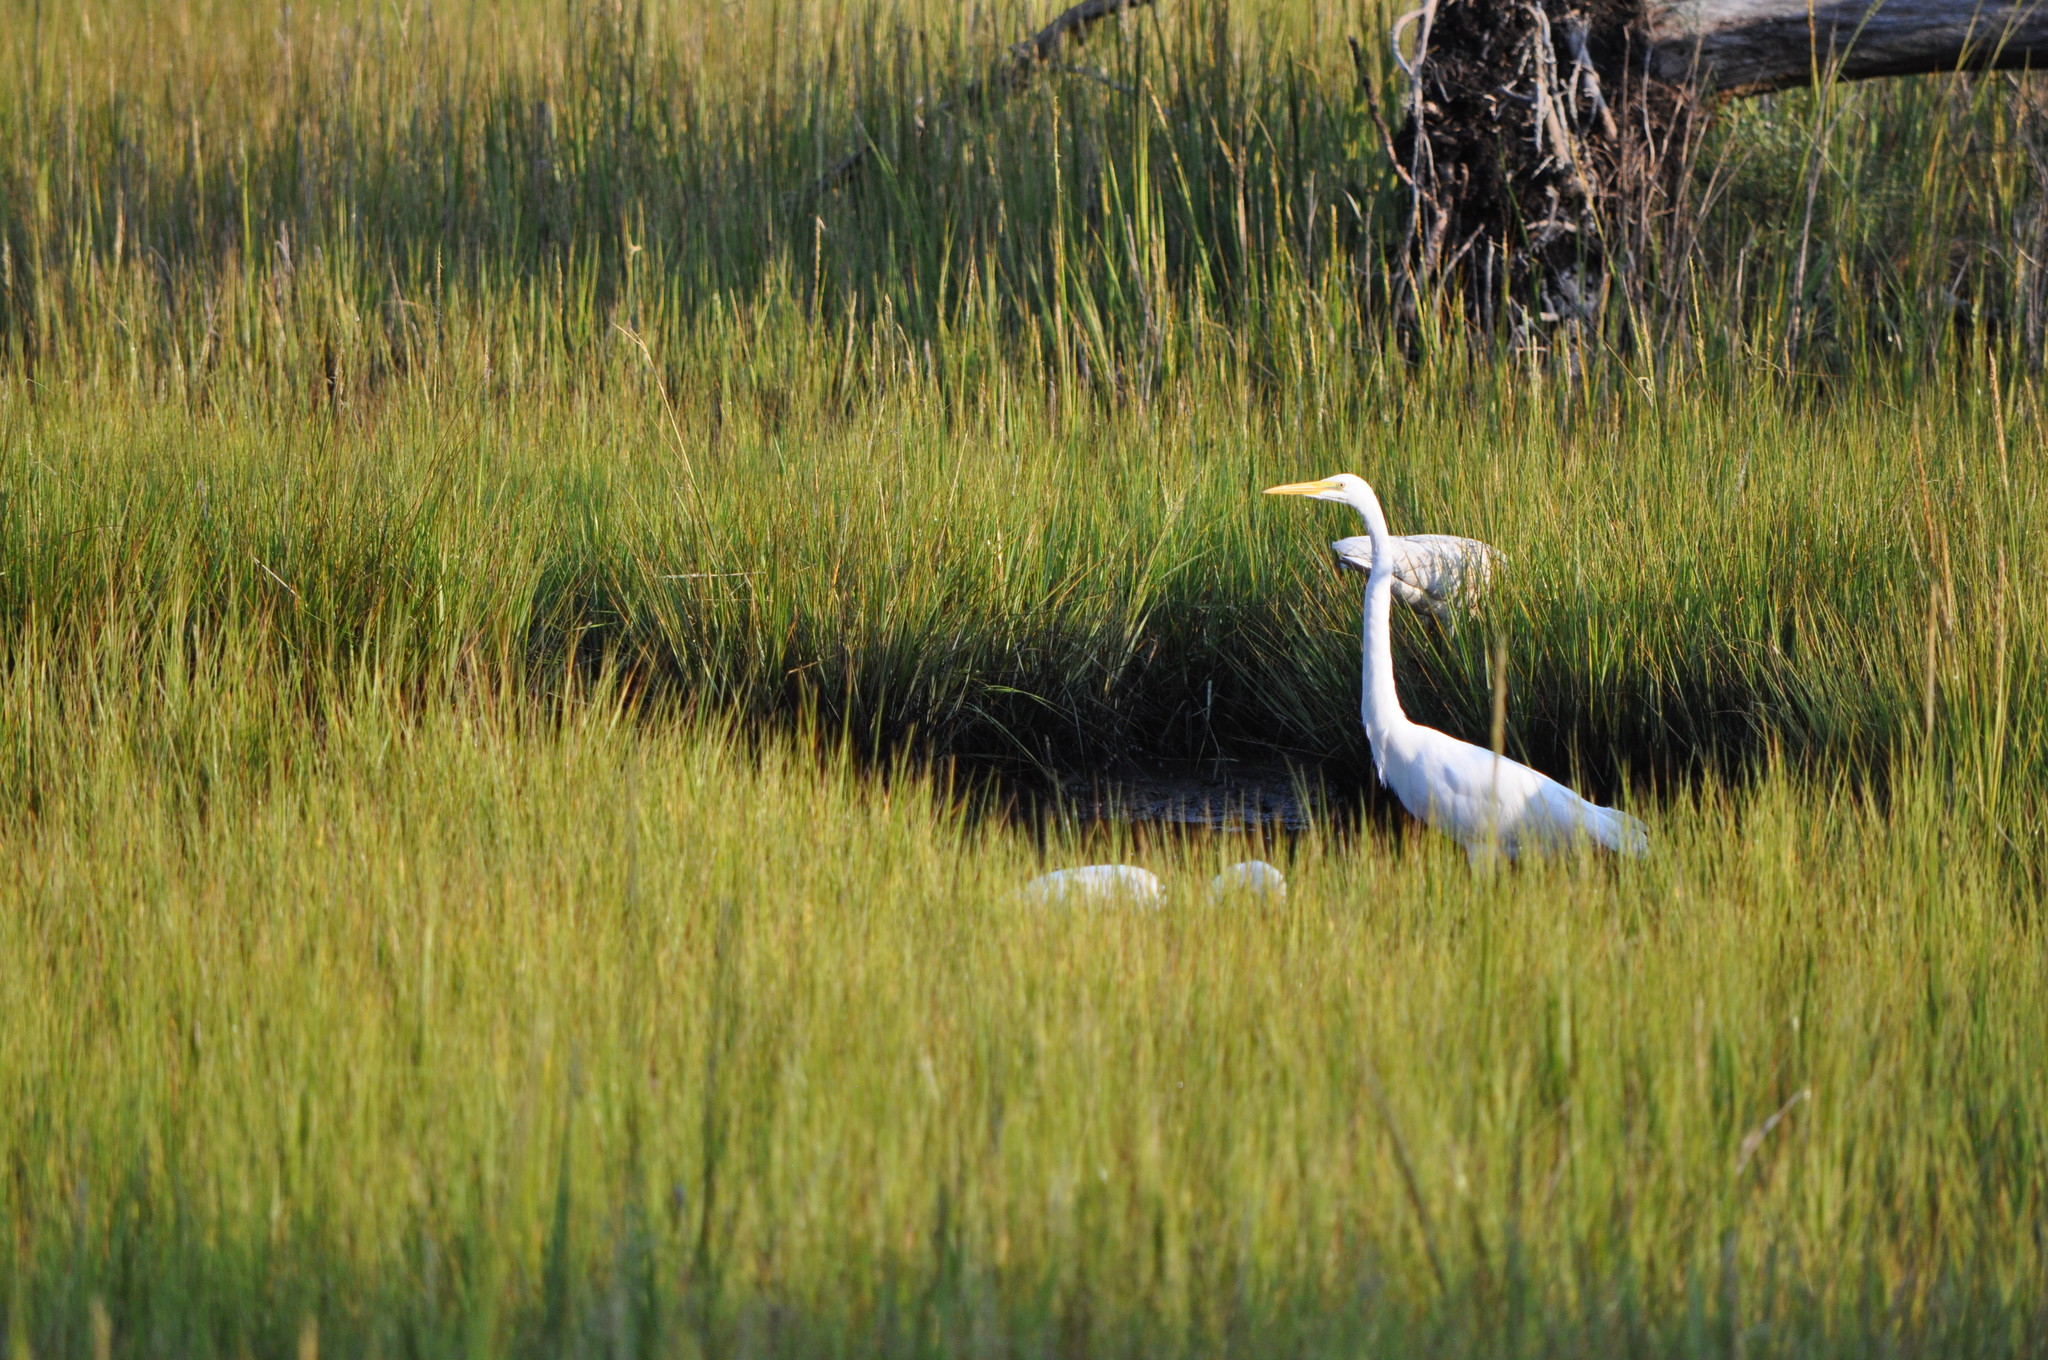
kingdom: Animalia
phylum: Chordata
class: Aves
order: Pelecaniformes
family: Ardeidae
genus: Ardea
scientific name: Ardea alba
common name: Great egret
